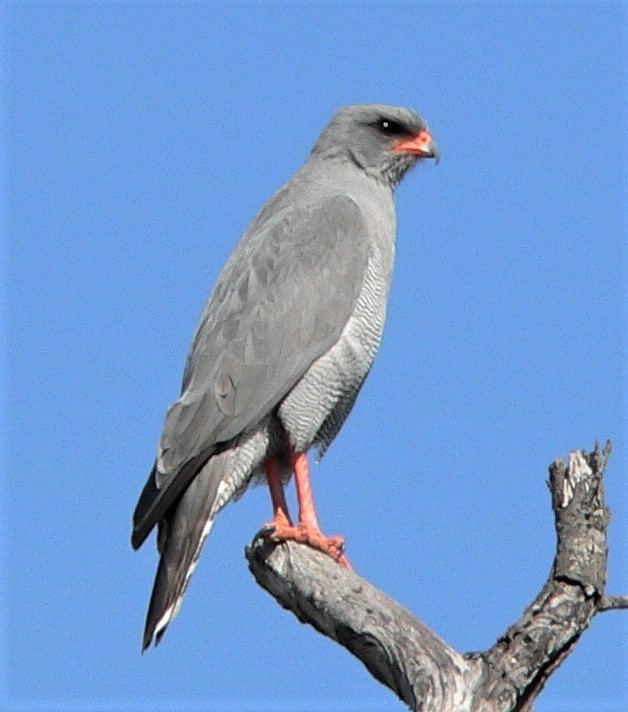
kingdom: Animalia
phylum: Chordata
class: Aves
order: Accipitriformes
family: Accipitridae
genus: Melierax
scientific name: Melierax metabates
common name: Dark chanting-goshawk
